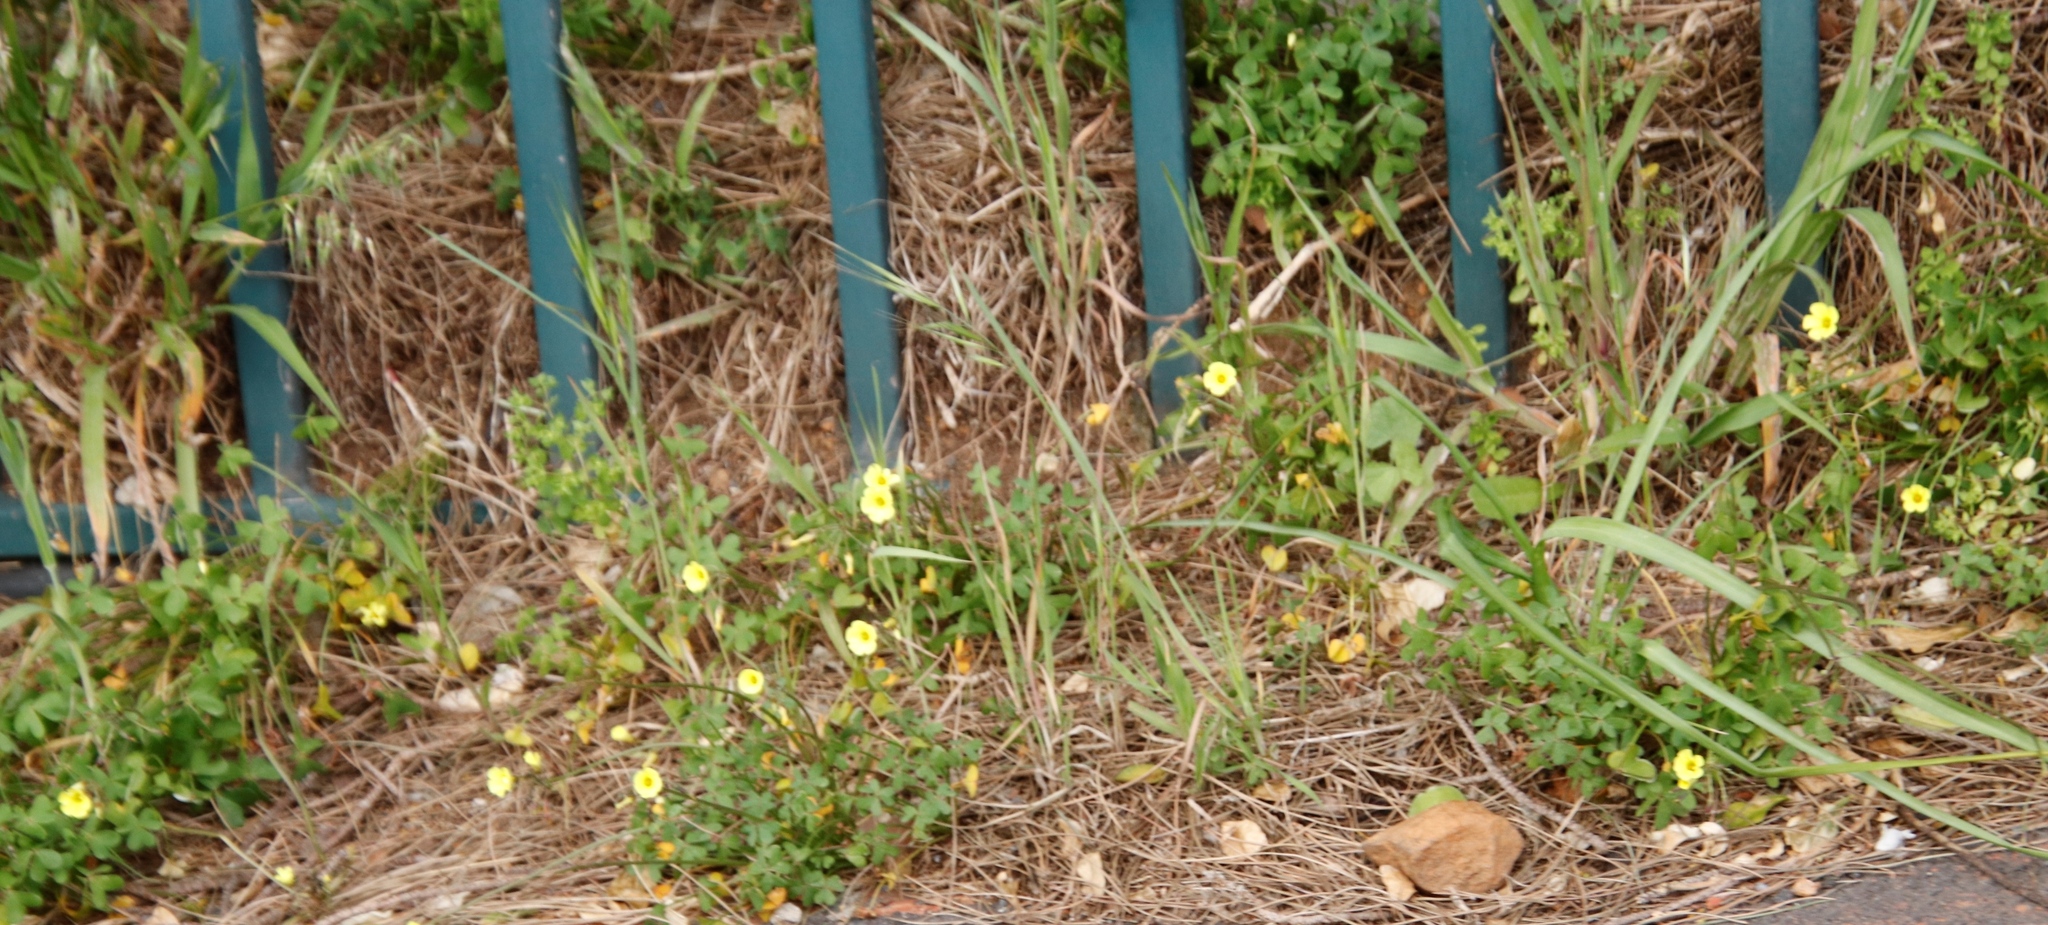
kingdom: Plantae
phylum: Tracheophyta
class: Magnoliopsida
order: Oxalidales
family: Oxalidaceae
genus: Oxalis
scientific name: Oxalis pes-caprae
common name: Bermuda-buttercup
